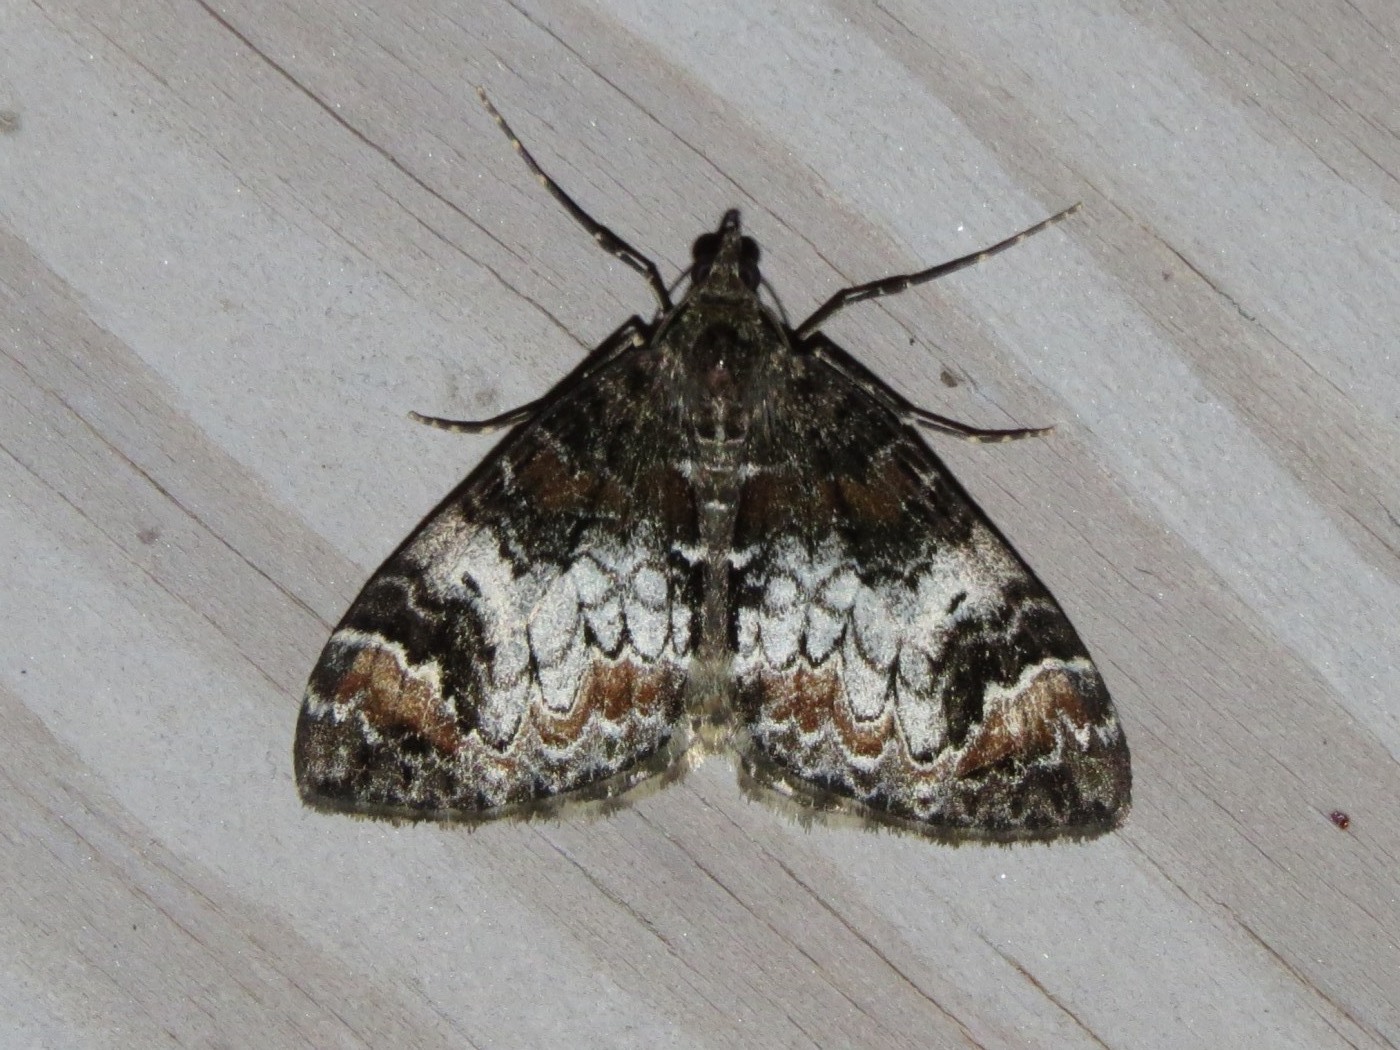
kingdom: Animalia
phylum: Arthropoda
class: Insecta
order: Lepidoptera
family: Geometridae
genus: Dysstroma
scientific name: Dysstroma truncata
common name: Common marbled carpet
